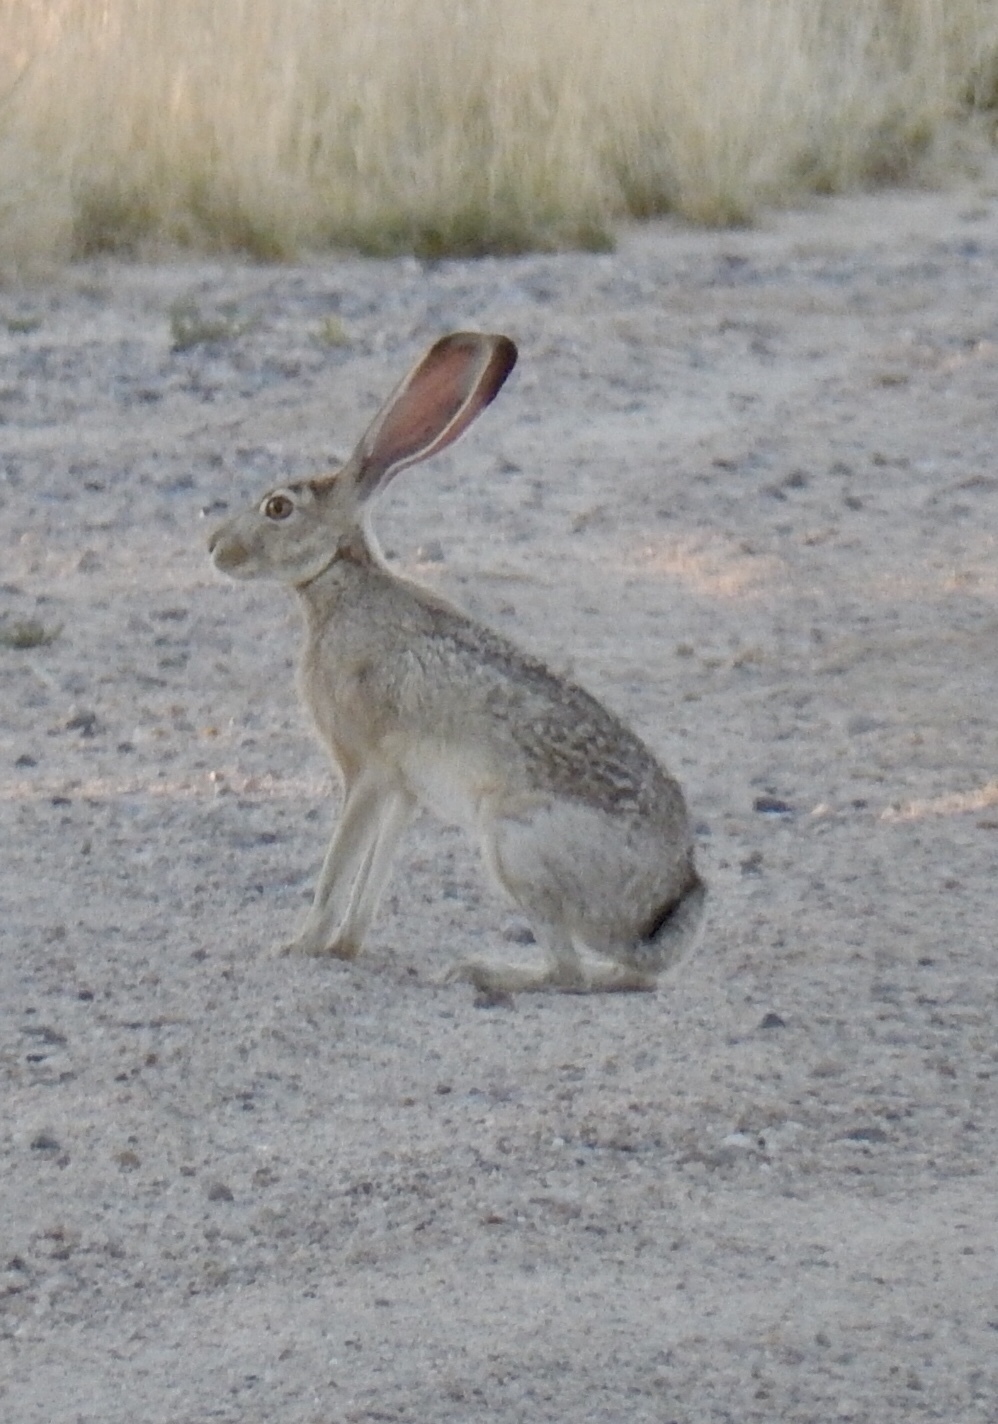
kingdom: Animalia
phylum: Chordata
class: Mammalia
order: Lagomorpha
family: Leporidae
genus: Lepus
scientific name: Lepus californicus
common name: Black-tailed jackrabbit
